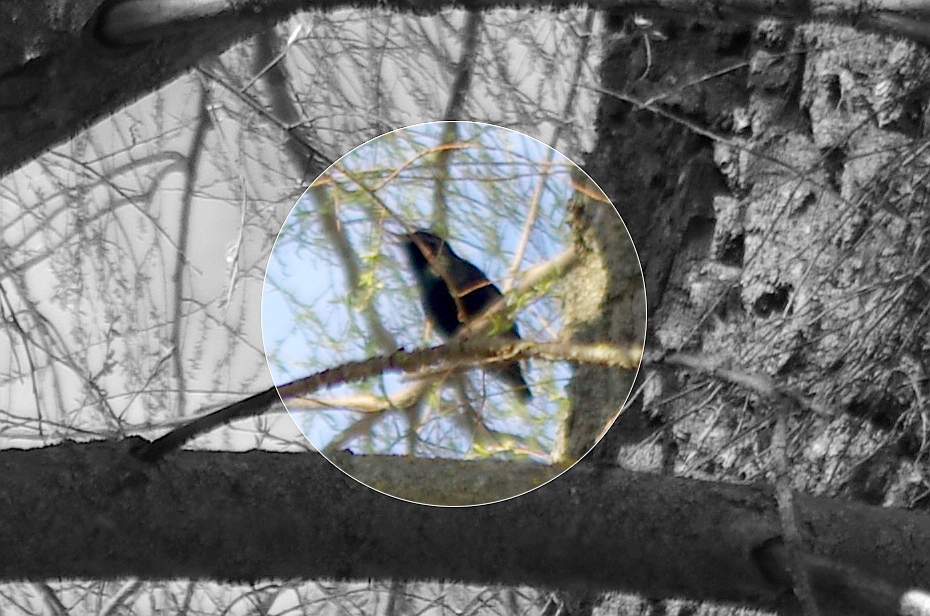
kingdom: Animalia
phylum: Chordata
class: Aves
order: Passeriformes
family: Sturnidae
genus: Sturnus
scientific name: Sturnus vulgaris
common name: Common starling
